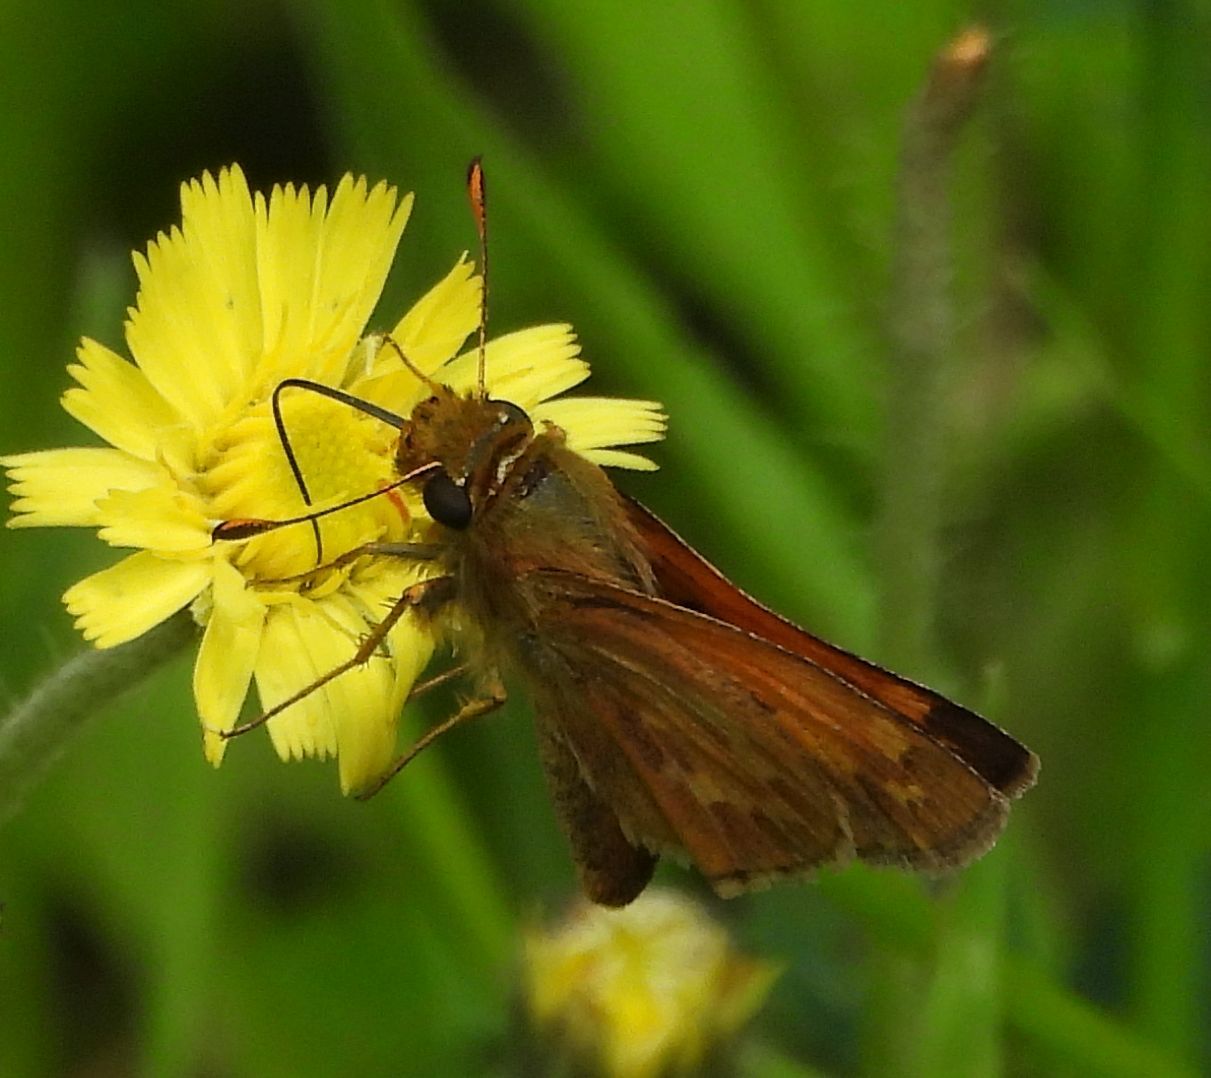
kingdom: Animalia
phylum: Arthropoda
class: Insecta
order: Lepidoptera
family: Hesperiidae
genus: Hesperia
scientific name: Hesperia sassacus
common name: Indian skipper
